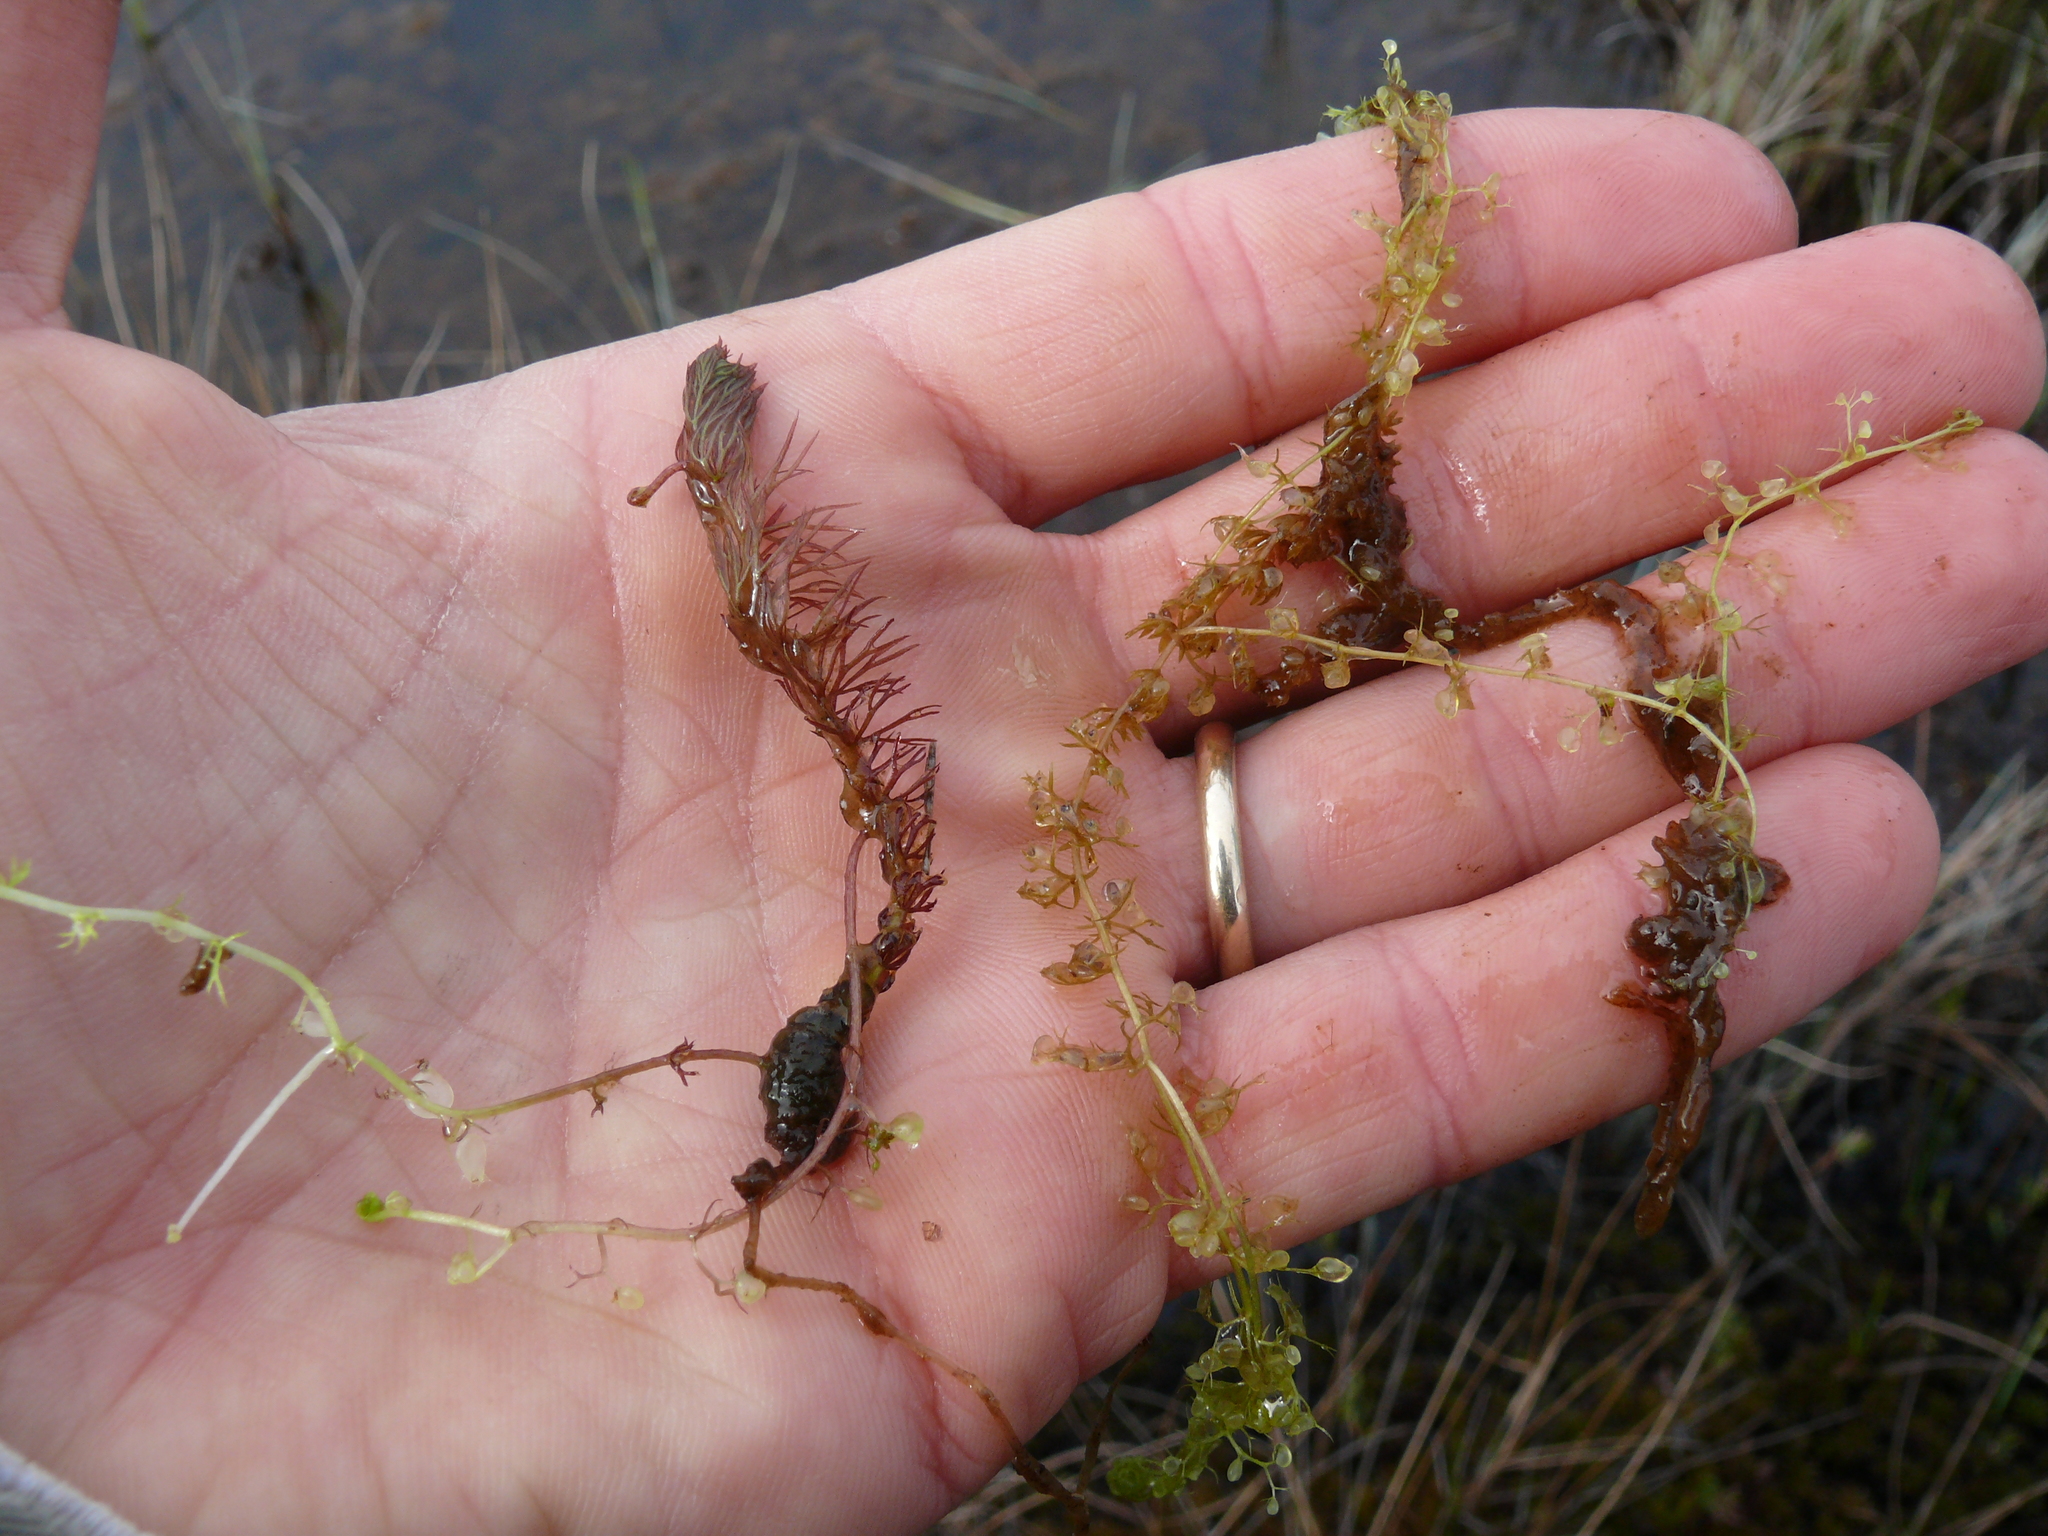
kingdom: Plantae
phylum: Tracheophyta
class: Magnoliopsida
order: Lamiales
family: Lentibulariaceae
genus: Utricularia
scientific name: Utricularia intermedia
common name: Intermediate bladderwort
